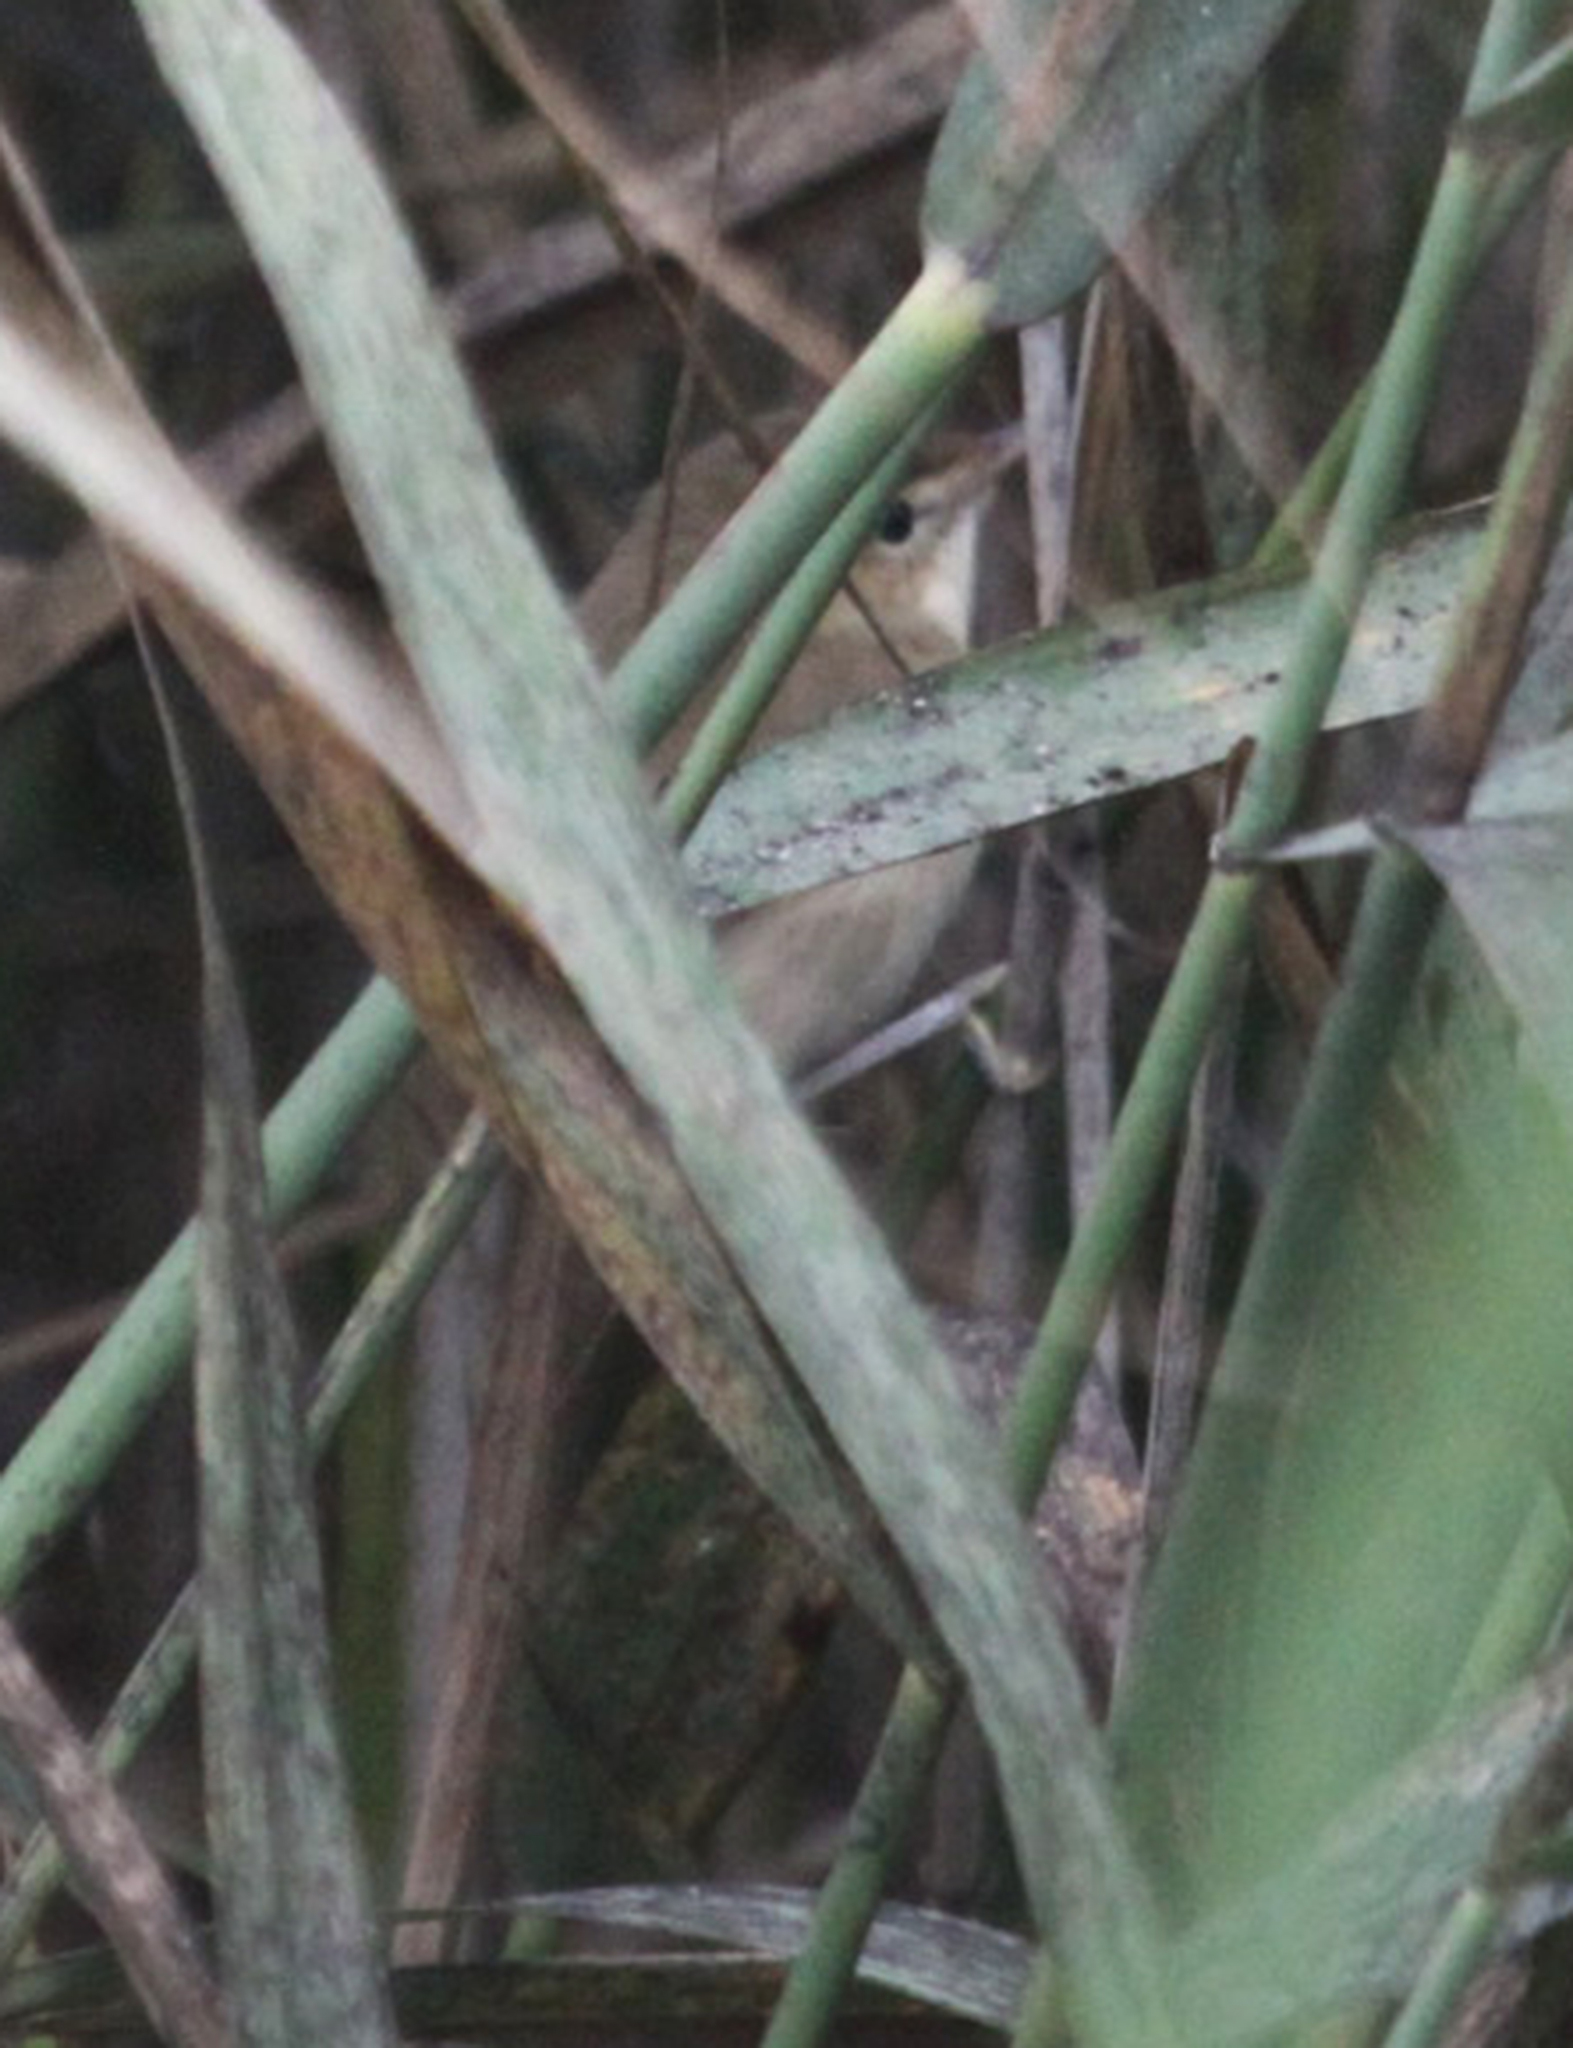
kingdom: Animalia
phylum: Chordata
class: Aves
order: Passeriformes
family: Acrocephalidae
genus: Acrocephalus
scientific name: Acrocephalus dumetorum
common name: Blyth's reed warbler
